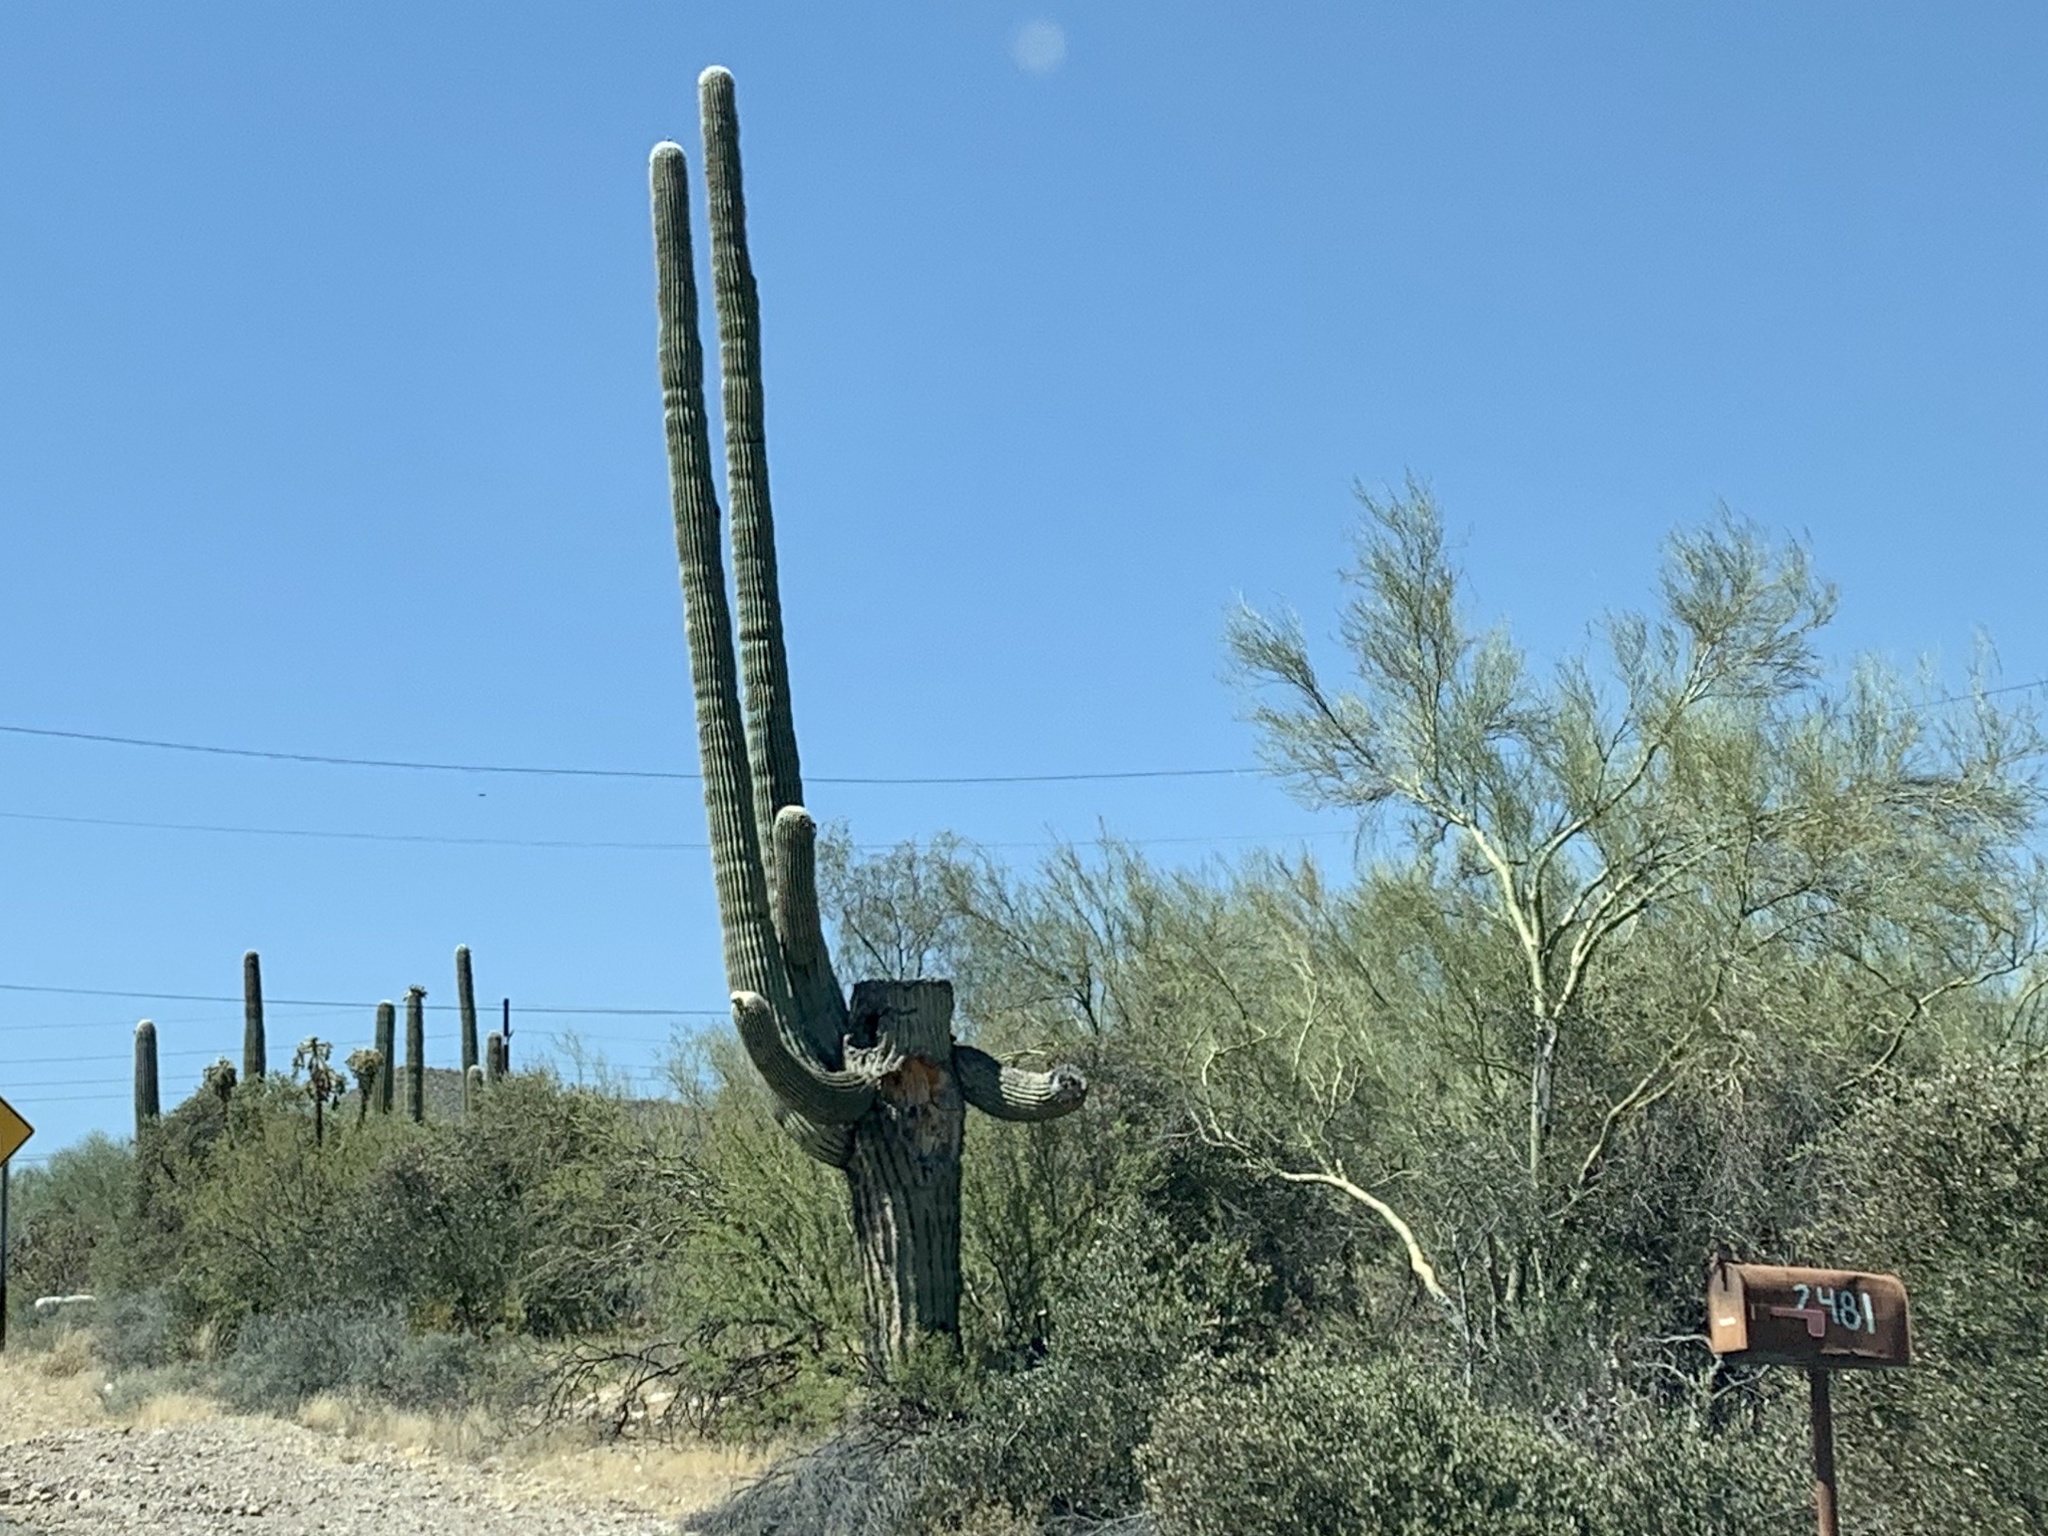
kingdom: Plantae
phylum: Tracheophyta
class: Magnoliopsida
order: Caryophyllales
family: Cactaceae
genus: Carnegiea
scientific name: Carnegiea gigantea
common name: Saguaro
